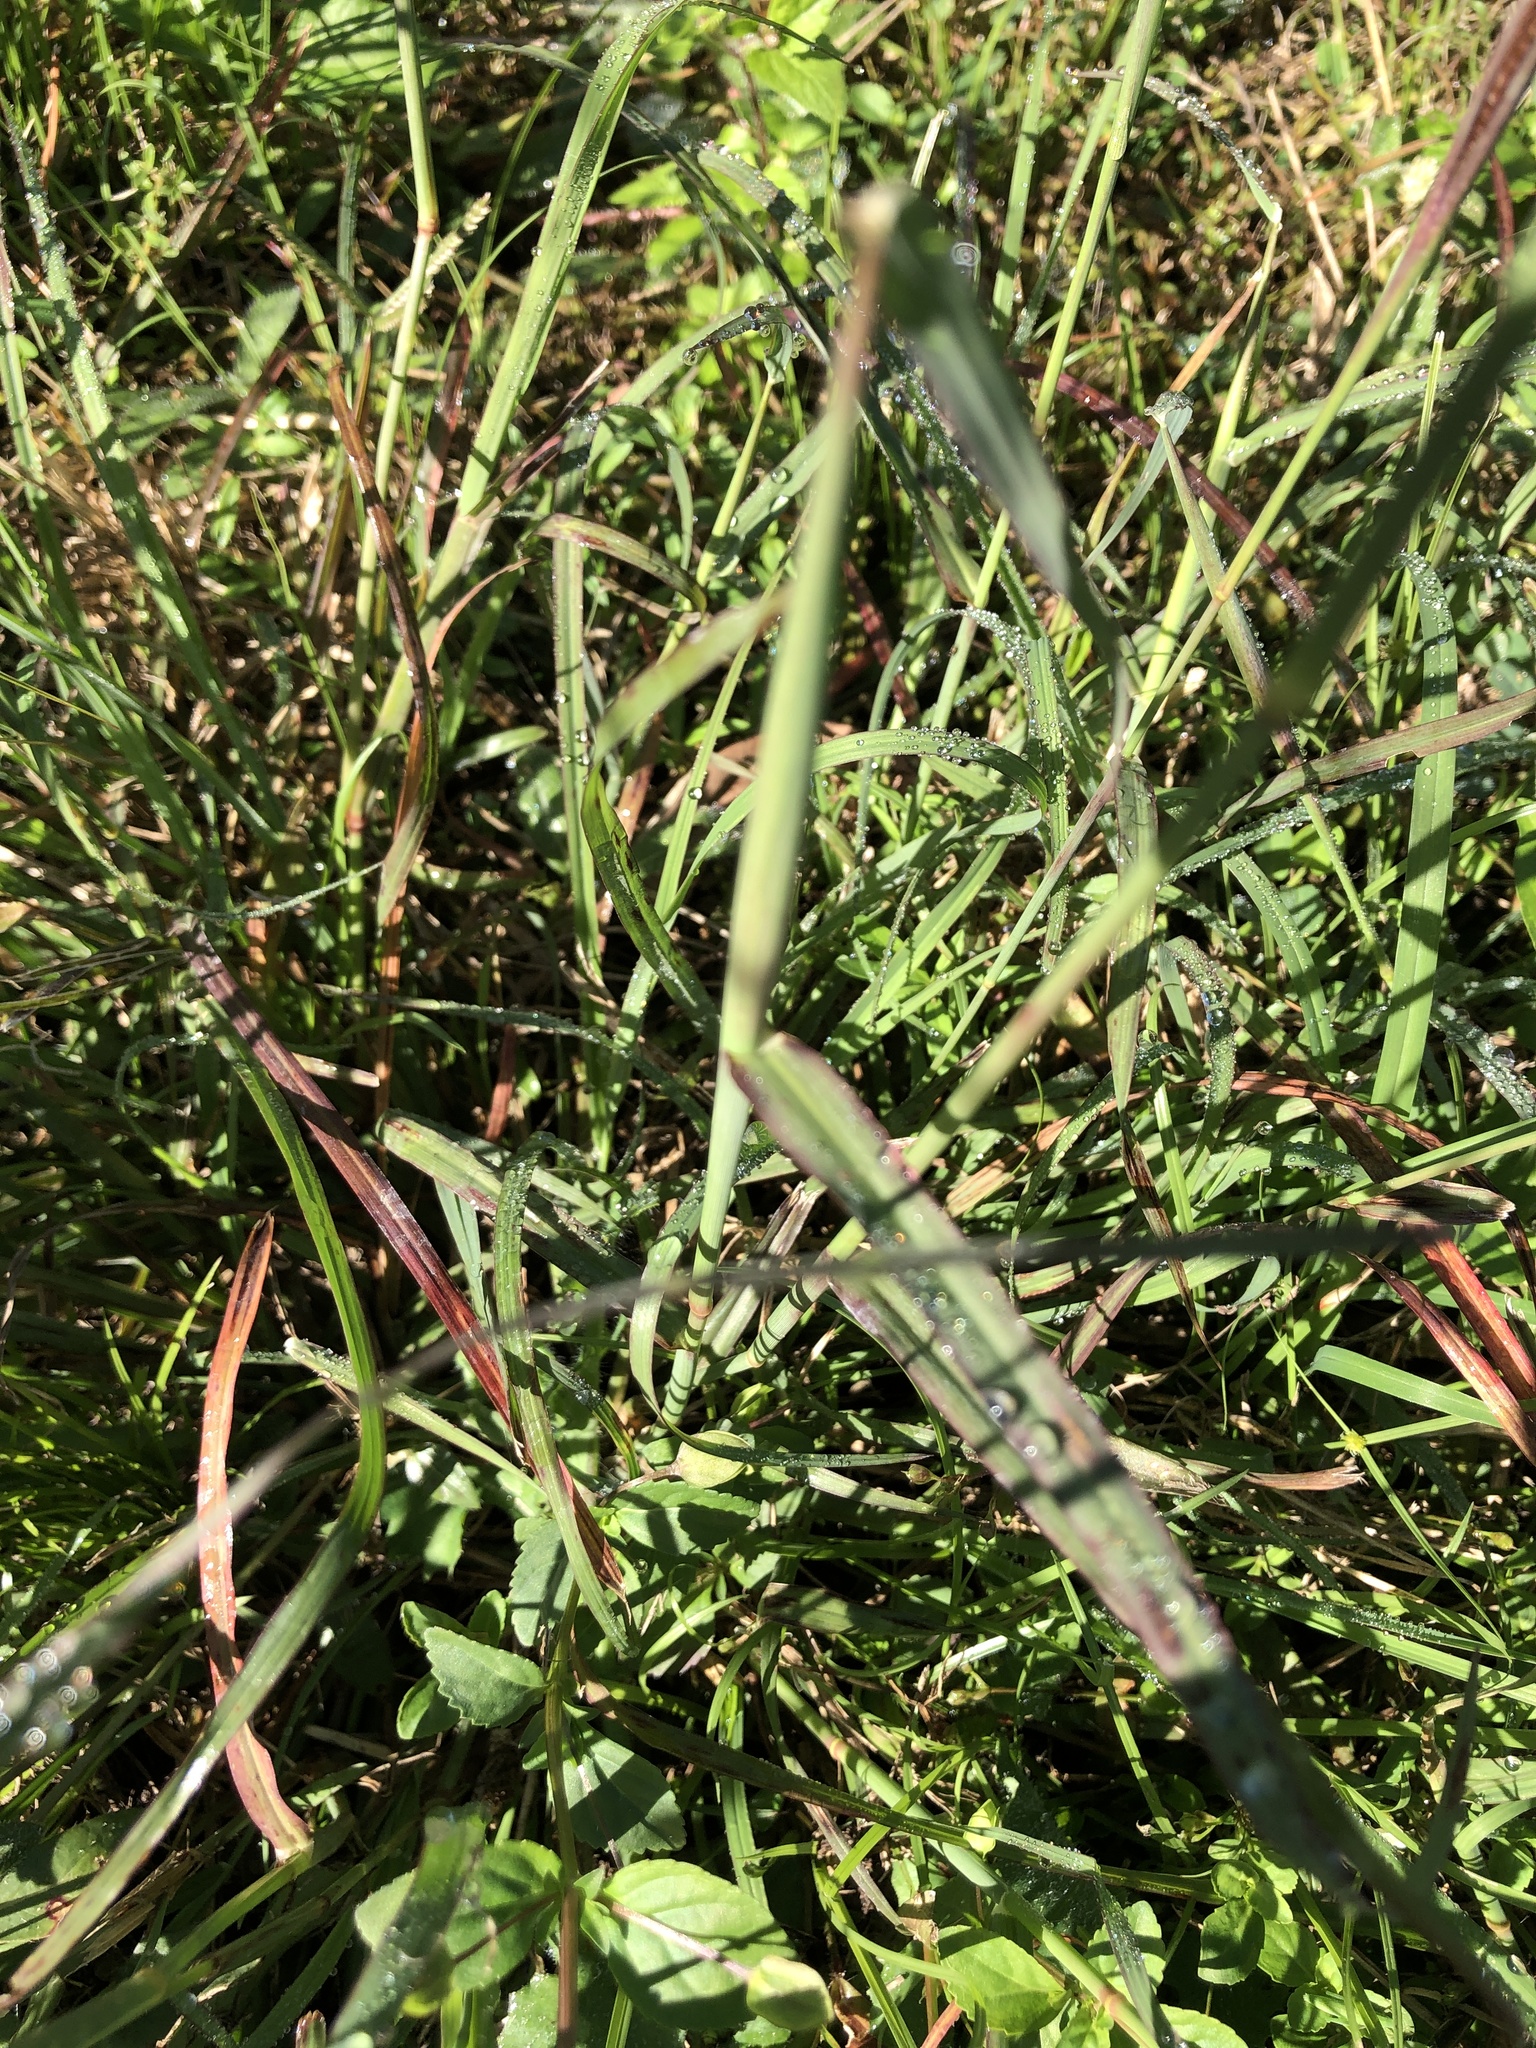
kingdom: Plantae
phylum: Tracheophyta
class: Liliopsida
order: Poales
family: Poaceae
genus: Chloris
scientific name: Chloris barbata
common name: Swollen fingergrass
